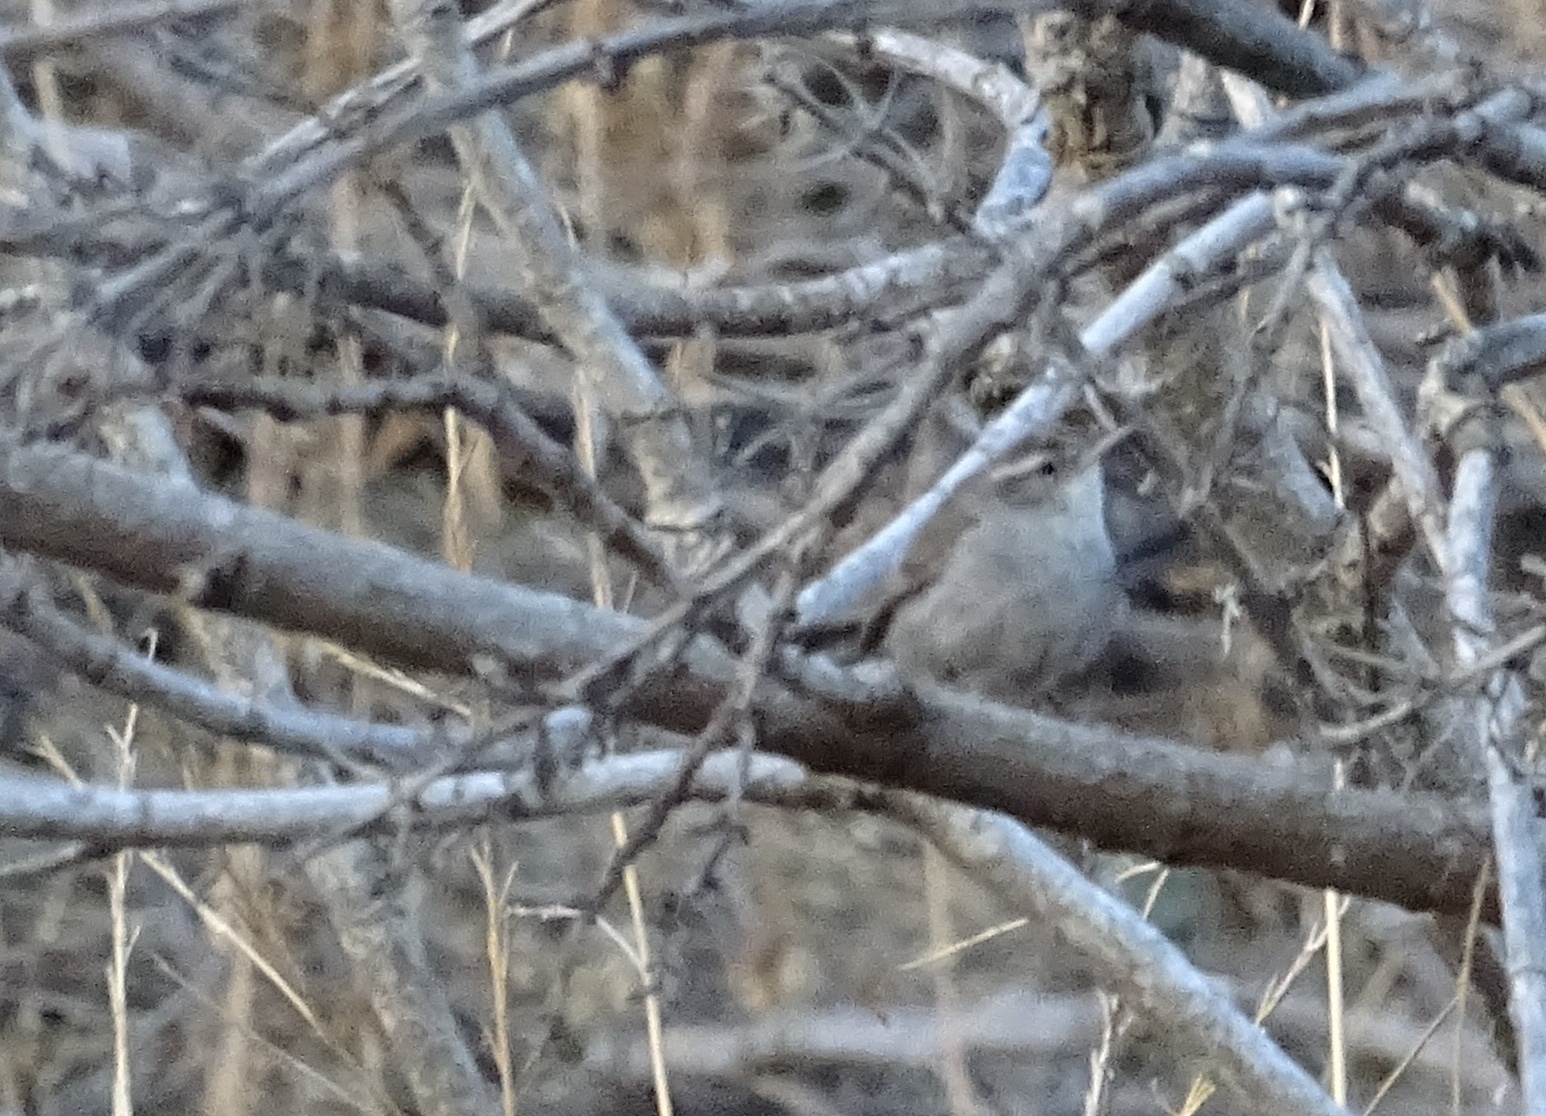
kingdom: Animalia
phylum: Chordata
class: Aves
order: Passeriformes
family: Troglodytidae
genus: Thryomanes
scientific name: Thryomanes bewickii
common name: Bewick's wren
